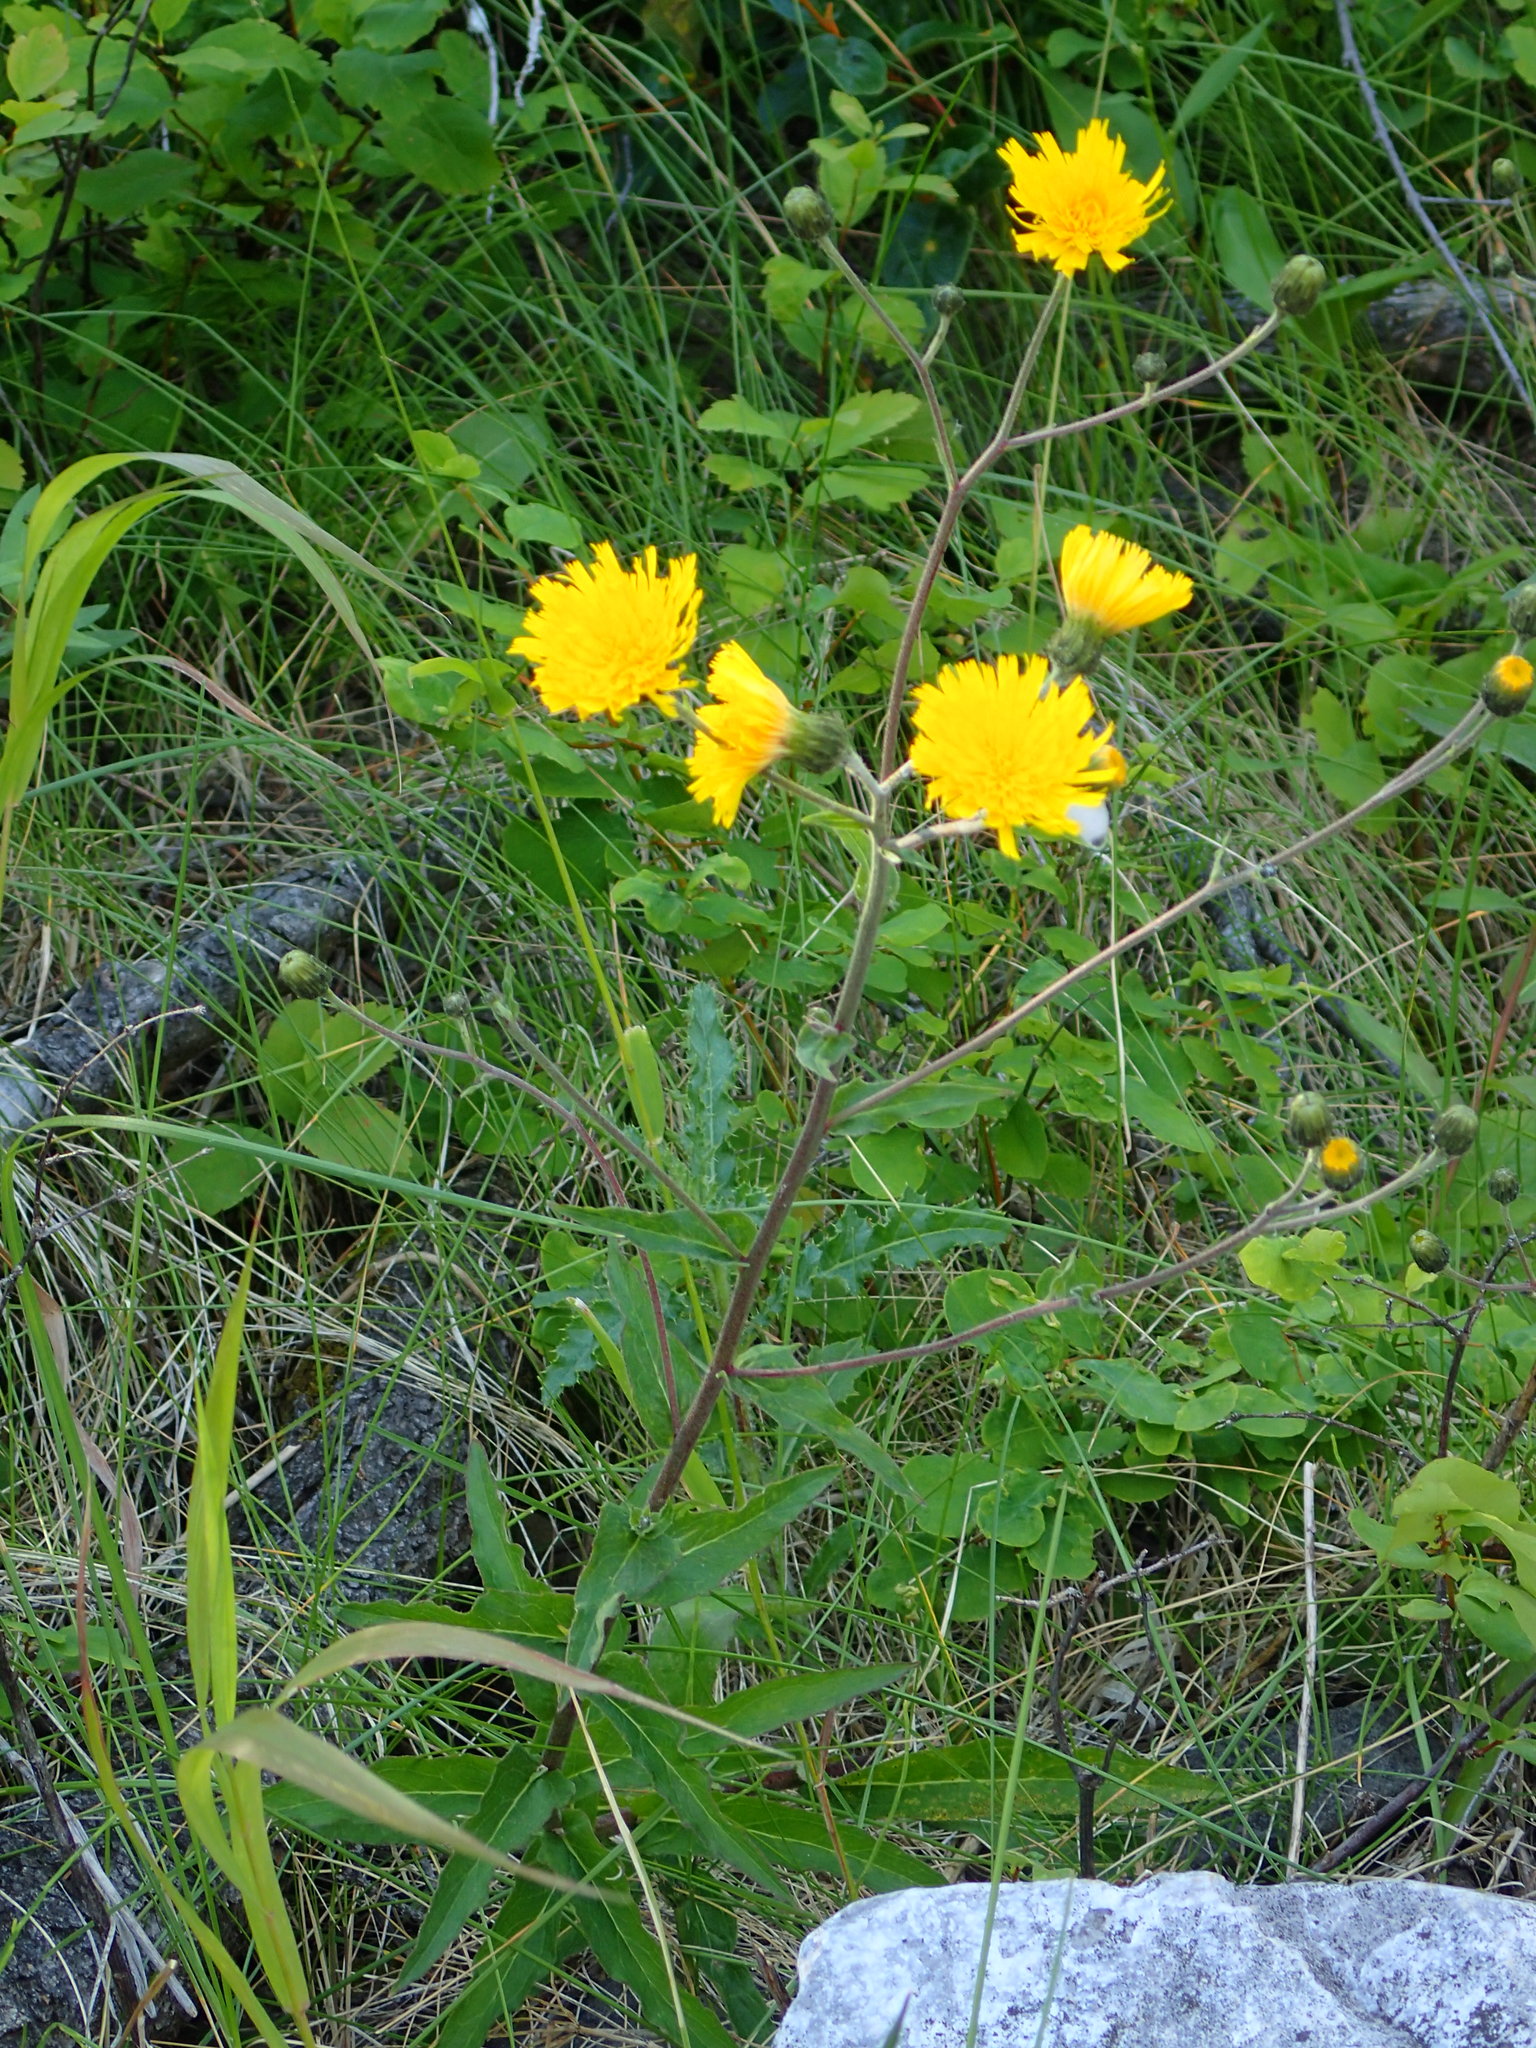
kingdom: Plantae
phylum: Tracheophyta
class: Magnoliopsida
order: Asterales
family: Asteraceae
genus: Hieracium
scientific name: Hieracium umbellatum
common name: Northern hawkweed
